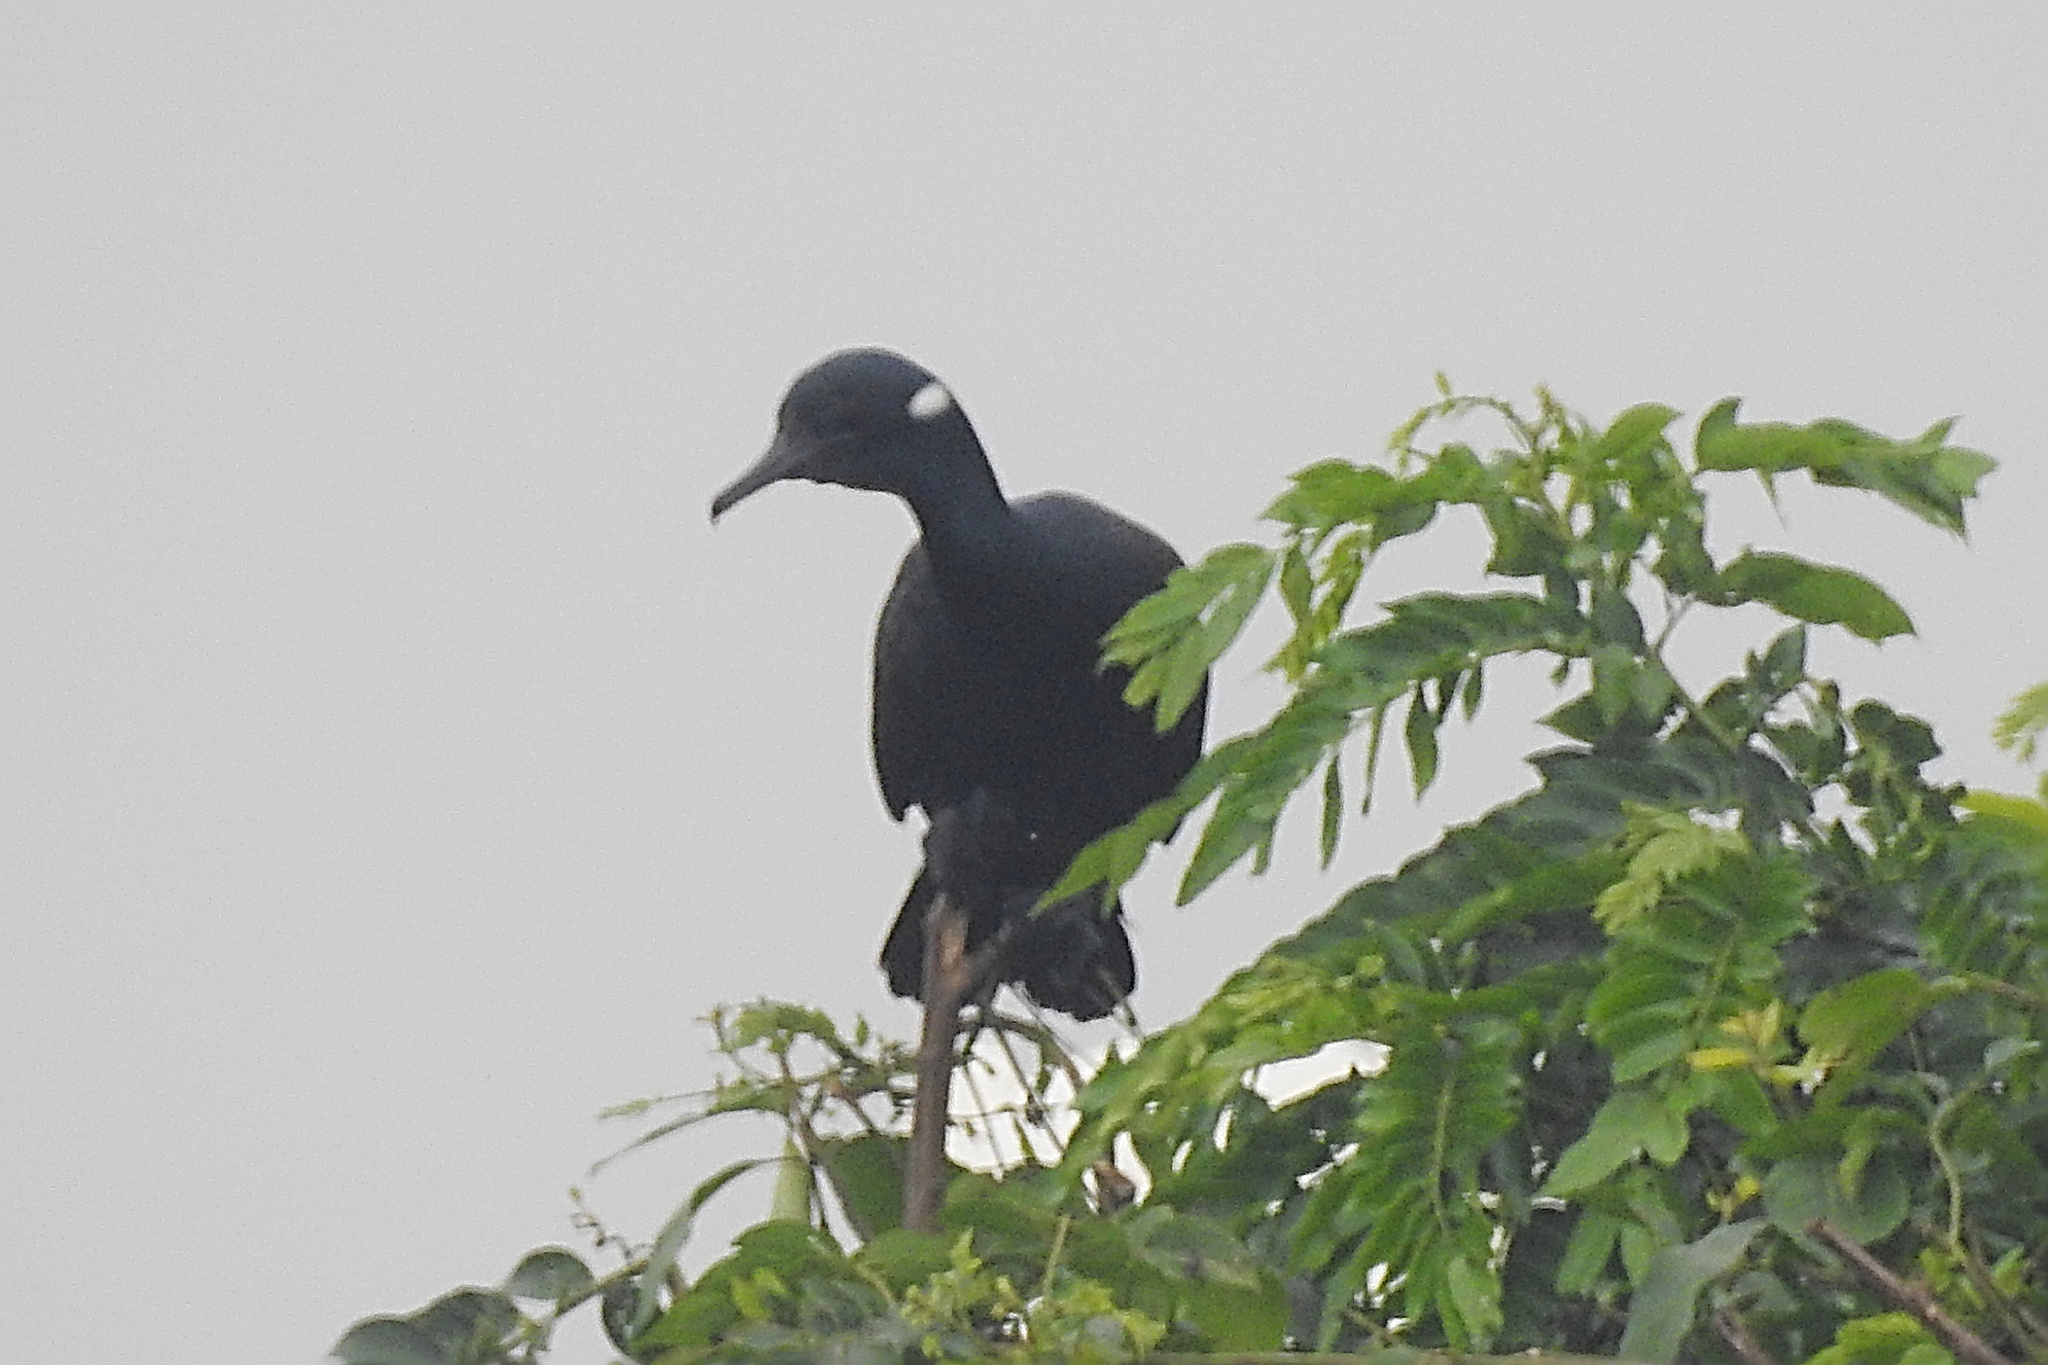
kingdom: Animalia
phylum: Chordata
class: Aves
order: Suliformes
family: Phalacrocoracidae
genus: Phalacrocorax
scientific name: Phalacrocorax fuscicollis
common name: Indian cormorant
